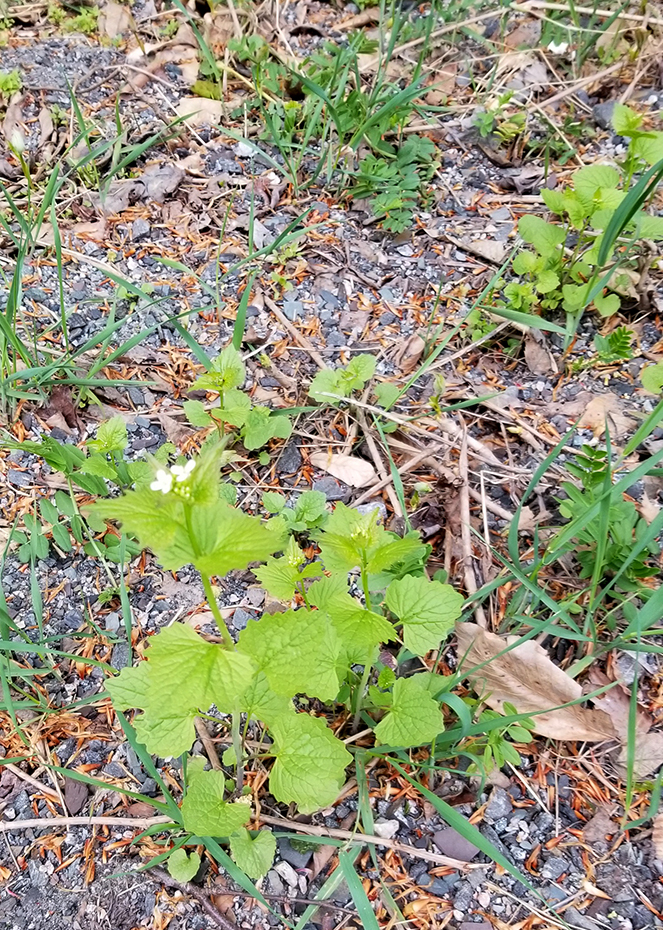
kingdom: Plantae
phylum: Tracheophyta
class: Magnoliopsida
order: Brassicales
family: Brassicaceae
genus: Alliaria
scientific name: Alliaria petiolata
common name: Garlic mustard
